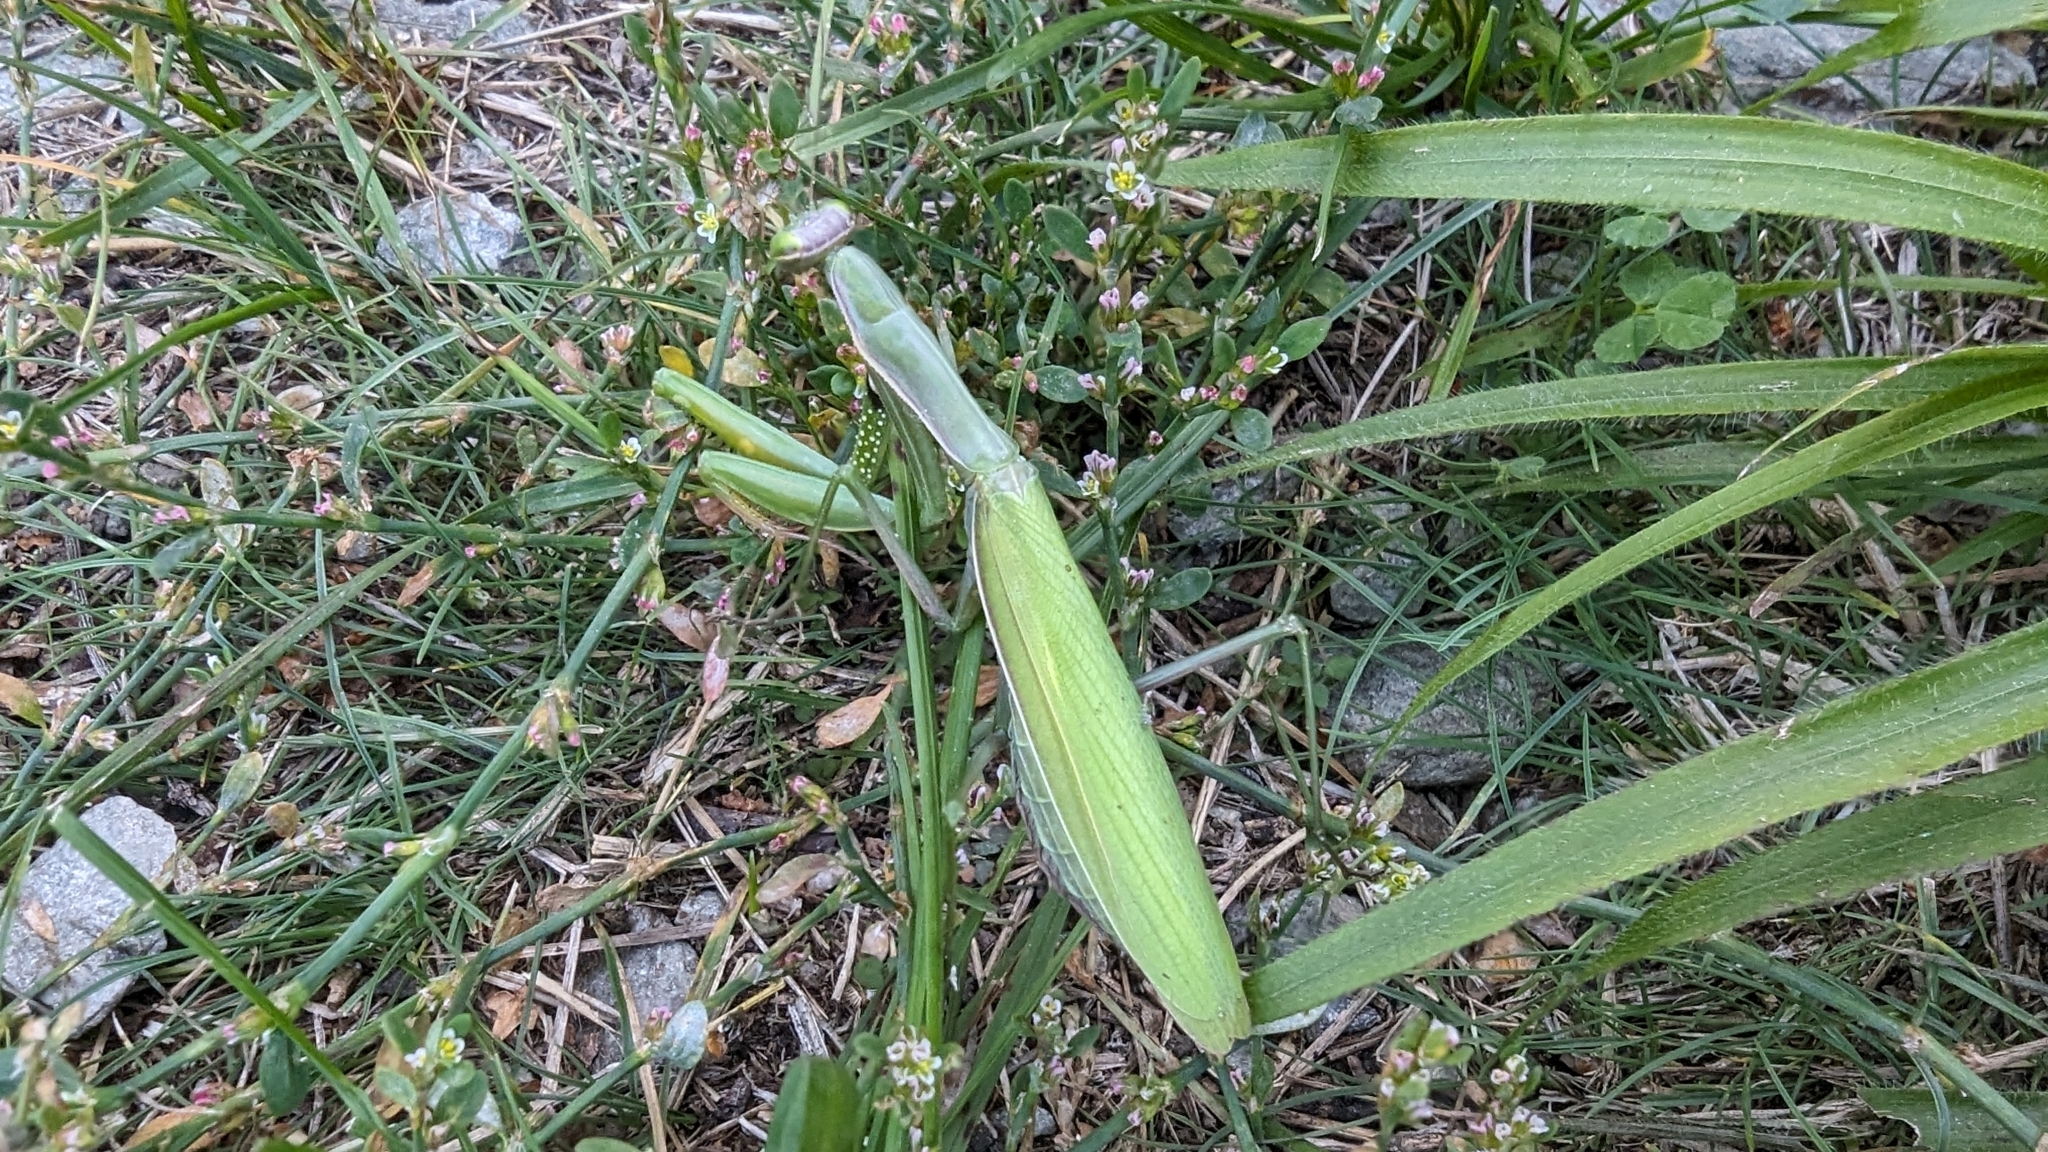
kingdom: Animalia
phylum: Arthropoda
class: Insecta
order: Mantodea
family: Mantidae
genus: Mantis
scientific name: Mantis religiosa
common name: Praying mantis
